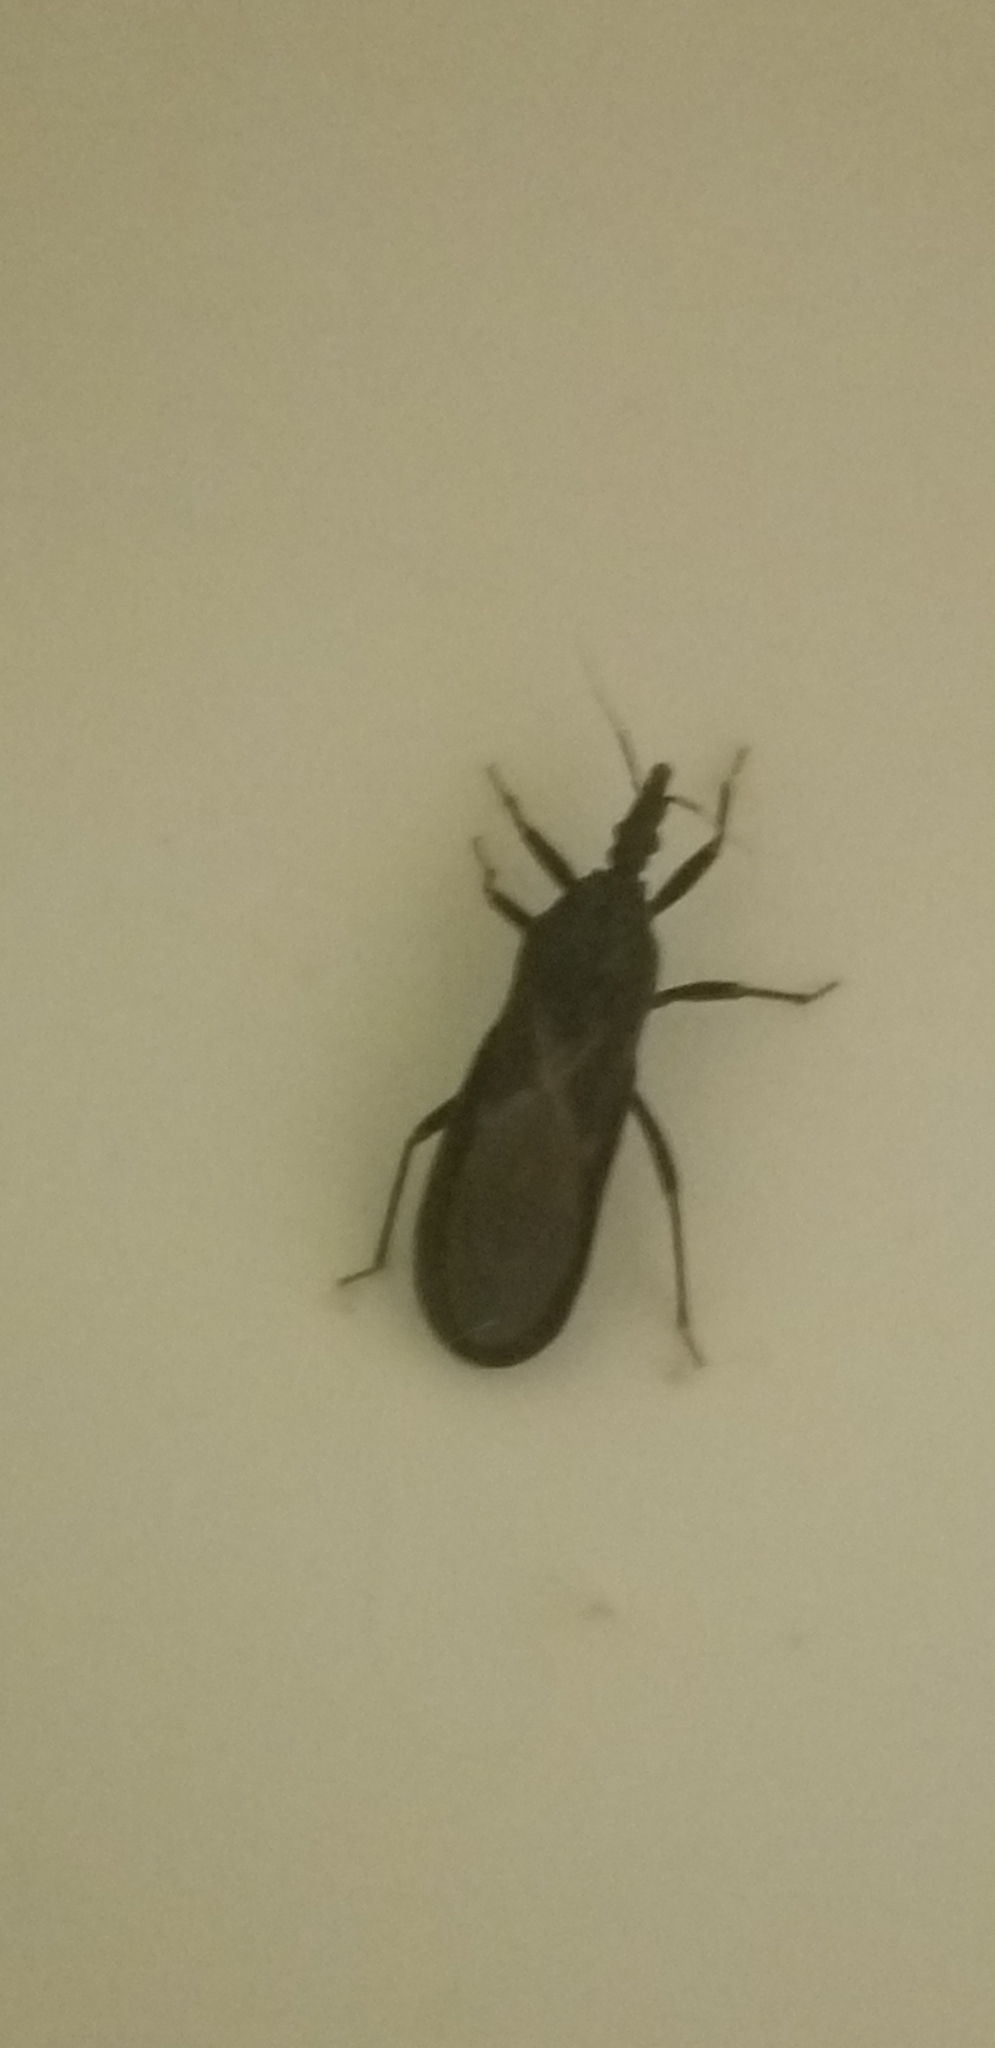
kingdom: Animalia
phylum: Arthropoda
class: Insecta
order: Hemiptera
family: Reduviidae
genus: Triatoma
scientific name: Triatoma protracta
